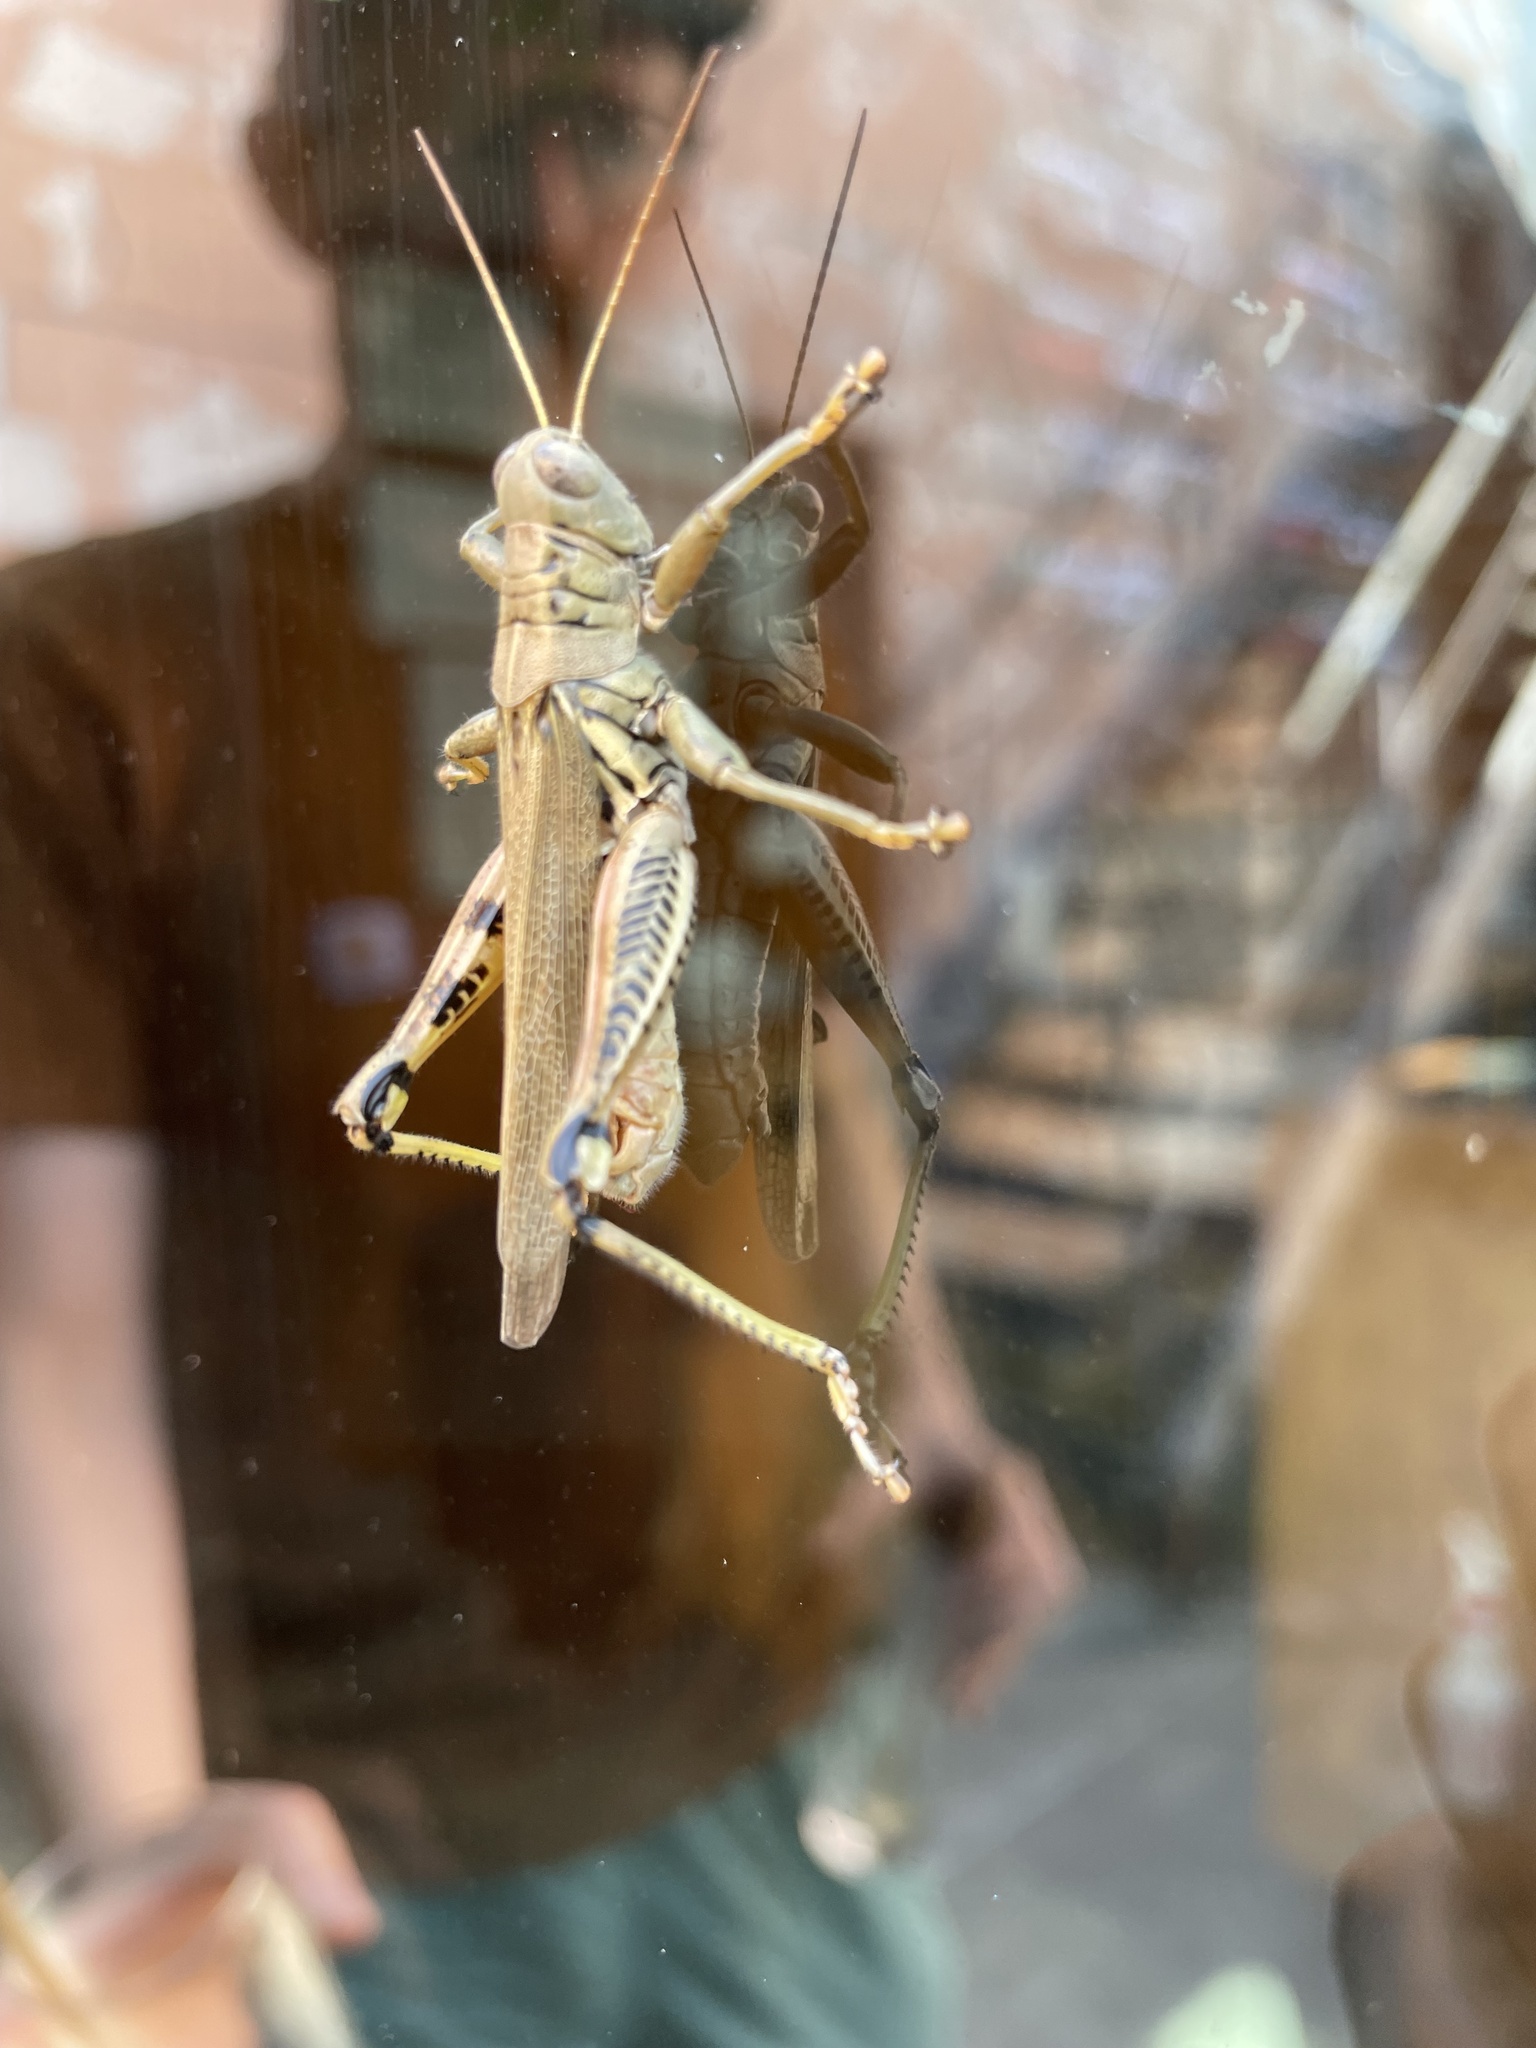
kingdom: Animalia
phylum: Arthropoda
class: Insecta
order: Orthoptera
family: Acrididae
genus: Melanoplus
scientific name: Melanoplus differentialis
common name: Differential grasshopper
